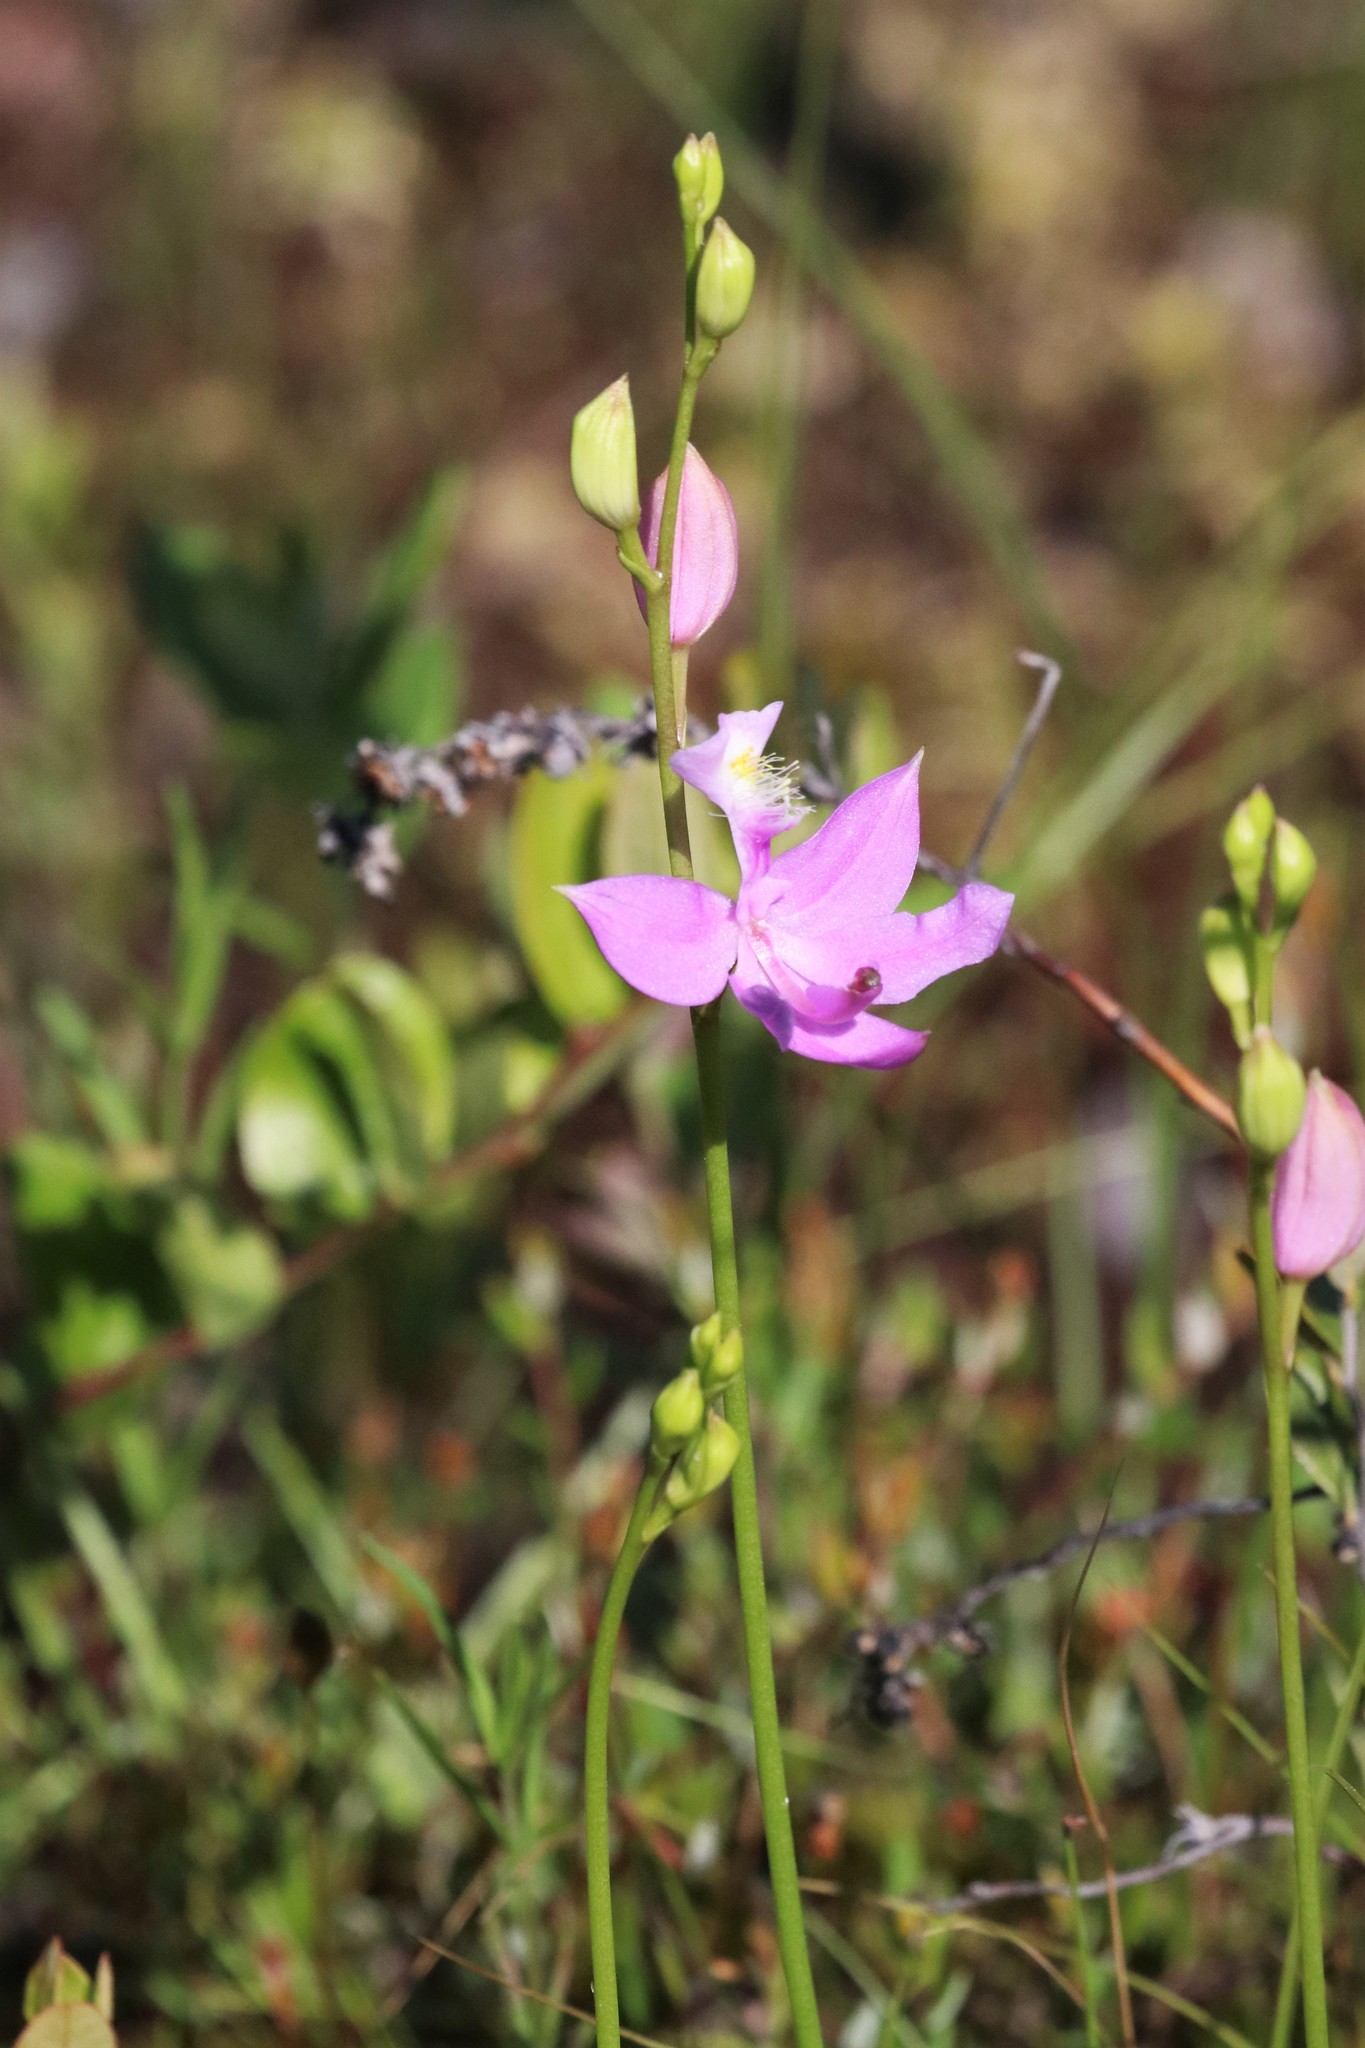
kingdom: Plantae
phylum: Tracheophyta
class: Liliopsida
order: Asparagales
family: Orchidaceae
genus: Calopogon
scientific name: Calopogon tuberosus
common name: Grass-pink
